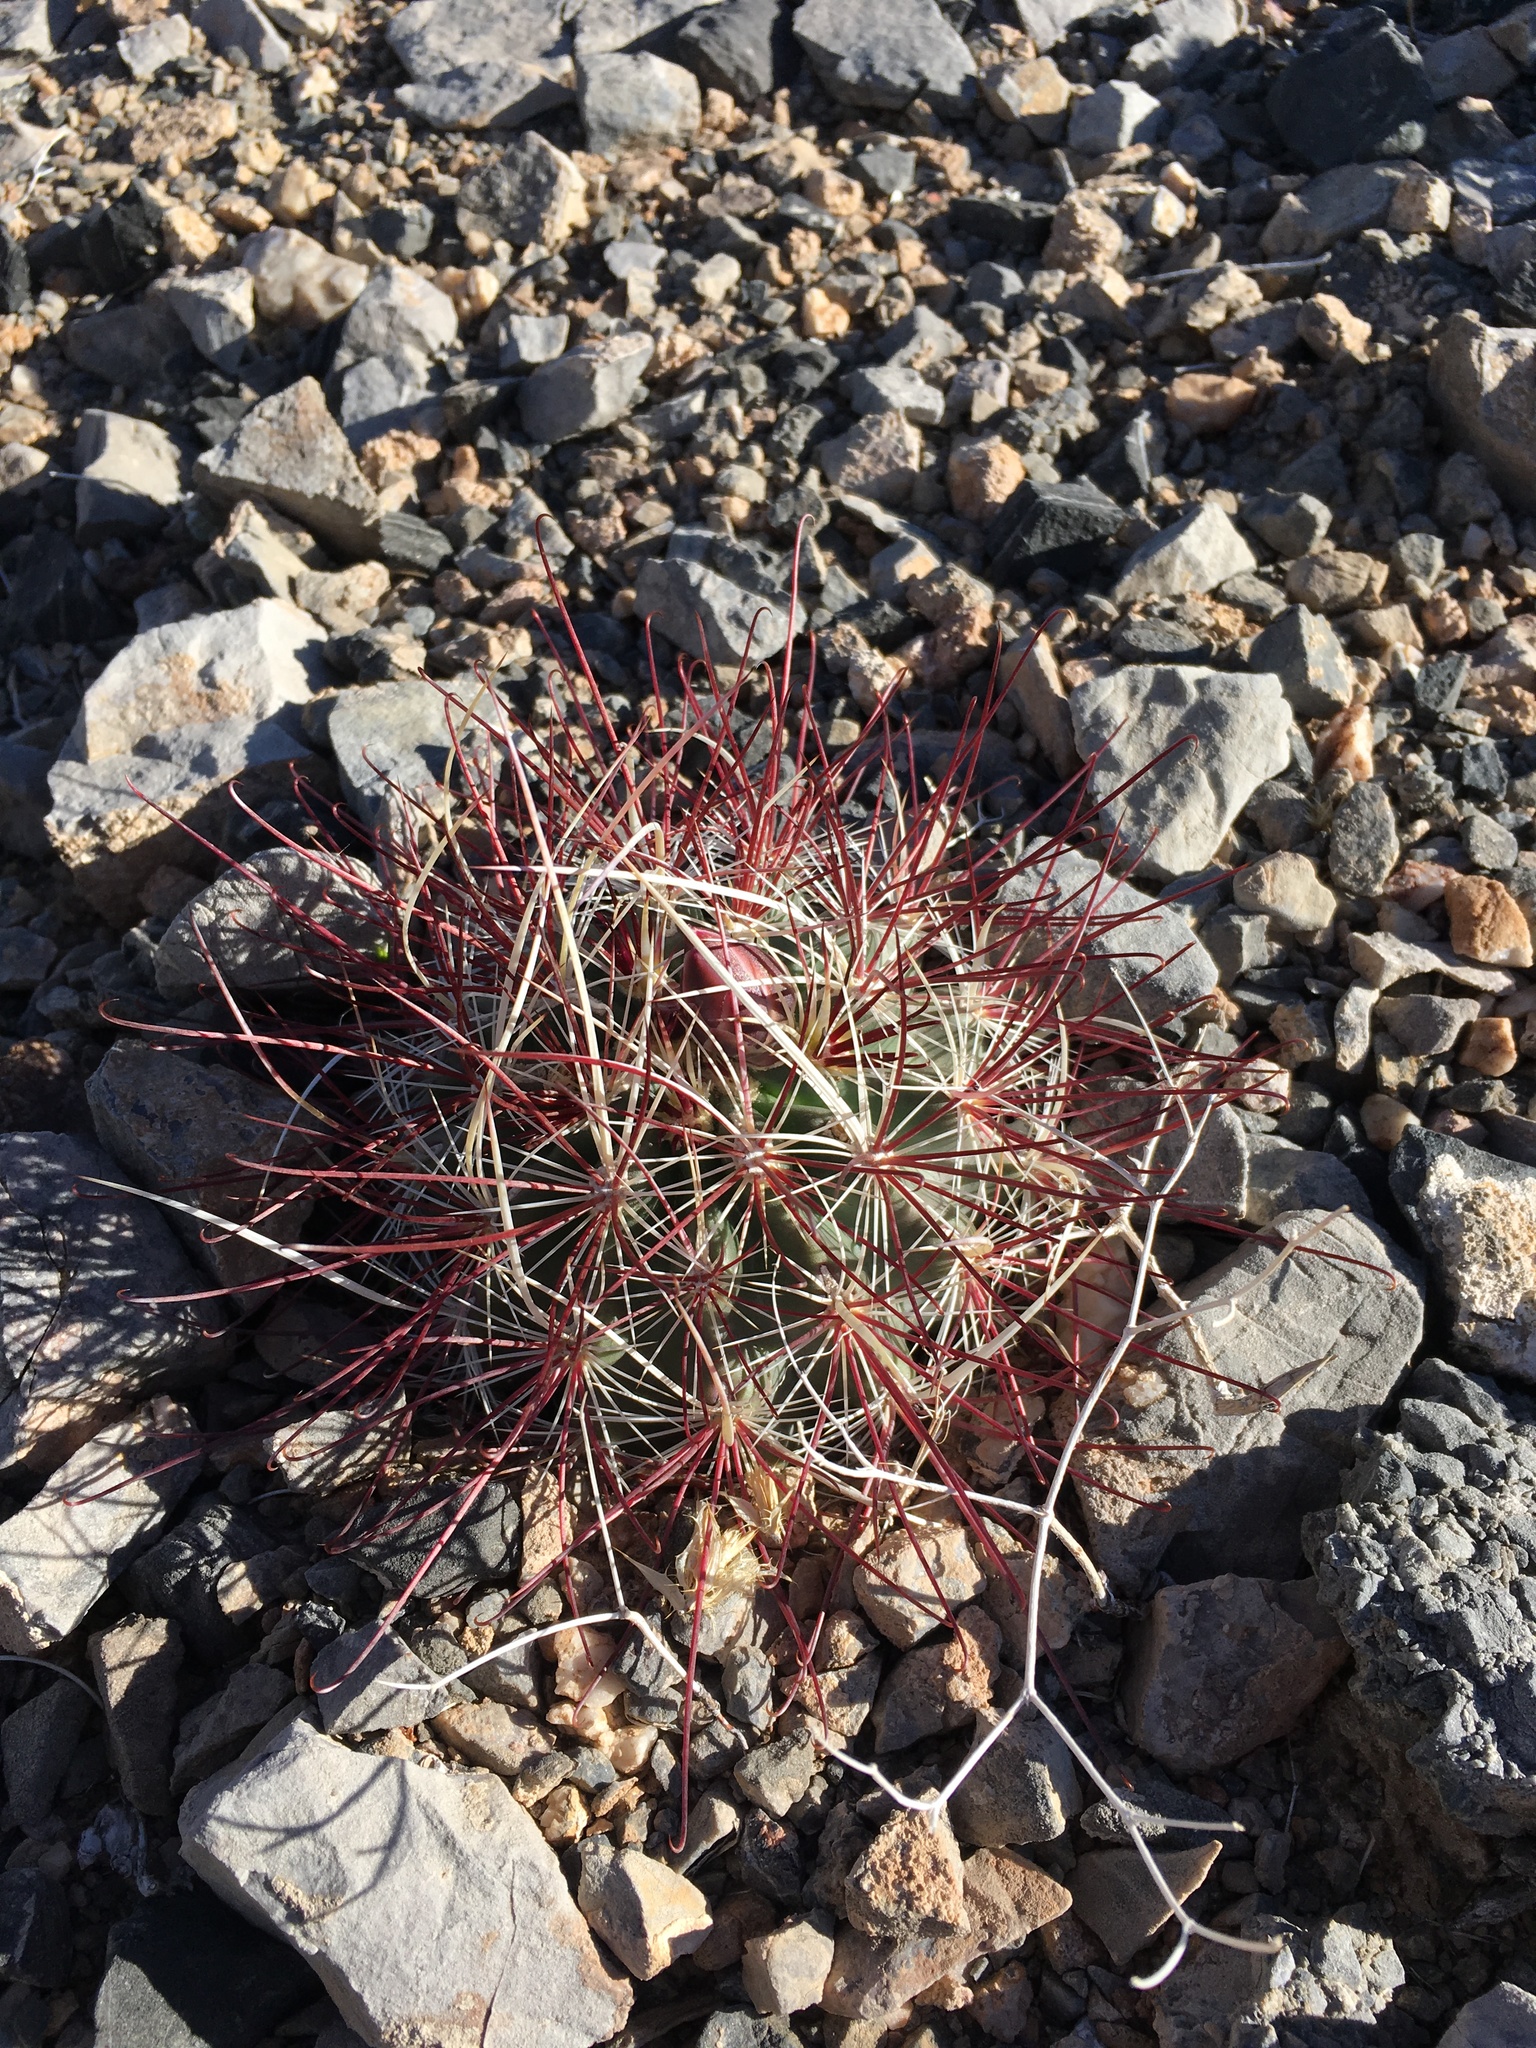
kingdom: Plantae
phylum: Tracheophyta
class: Magnoliopsida
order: Caryophyllales
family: Cactaceae
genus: Sclerocactus
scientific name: Sclerocactus polyancistrus
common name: Mohave fishhook cactus
